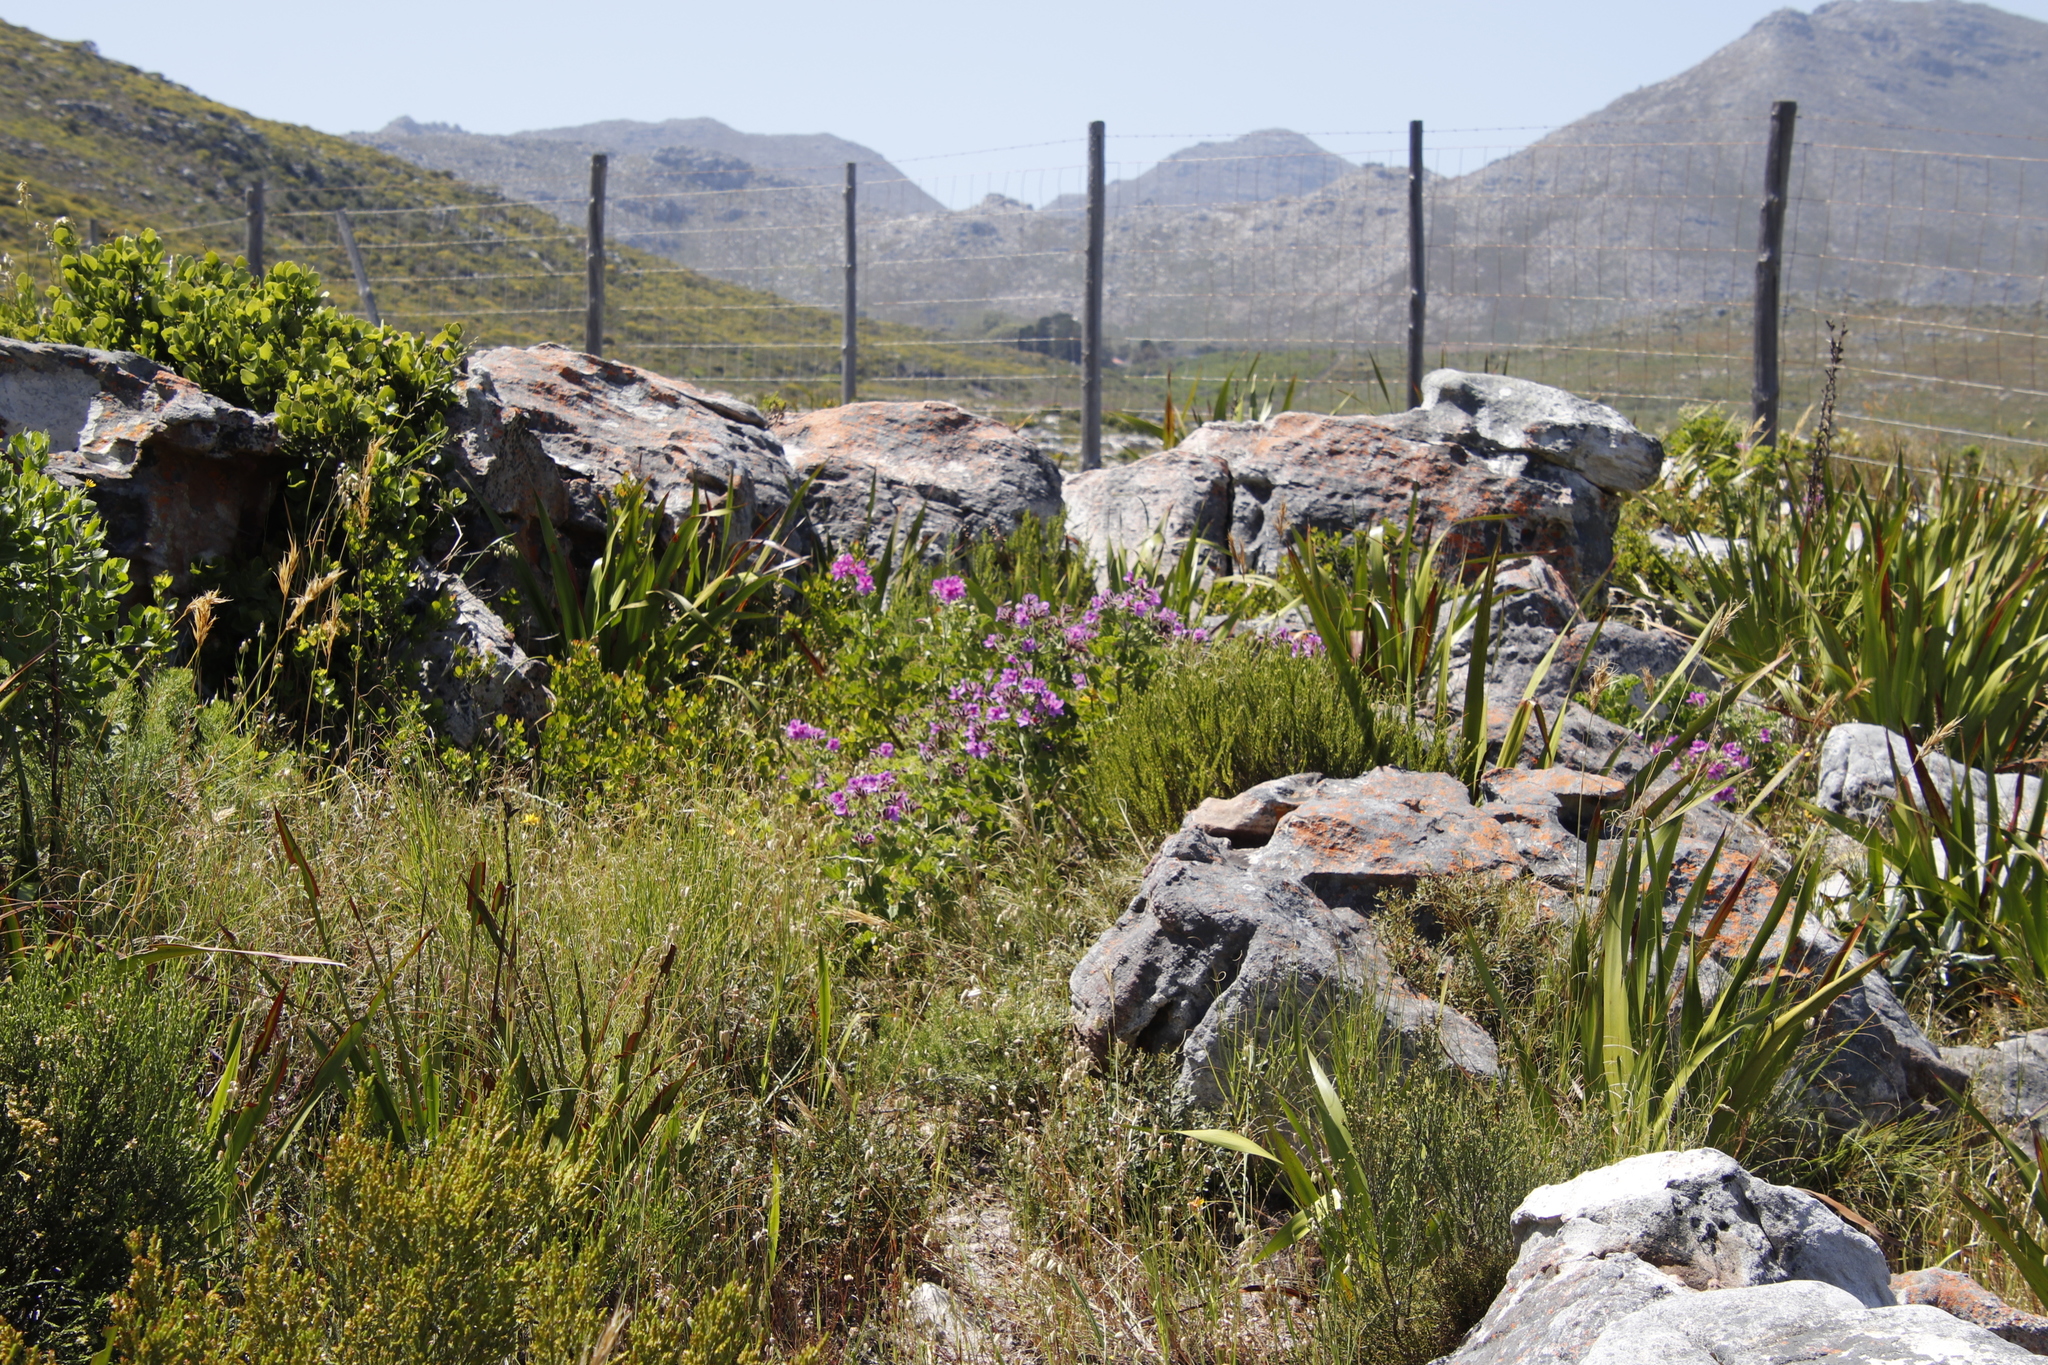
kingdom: Plantae
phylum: Tracheophyta
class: Magnoliopsida
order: Geraniales
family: Geraniaceae
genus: Pelargonium
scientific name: Pelargonium cucullatum
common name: Tree pelargonium
